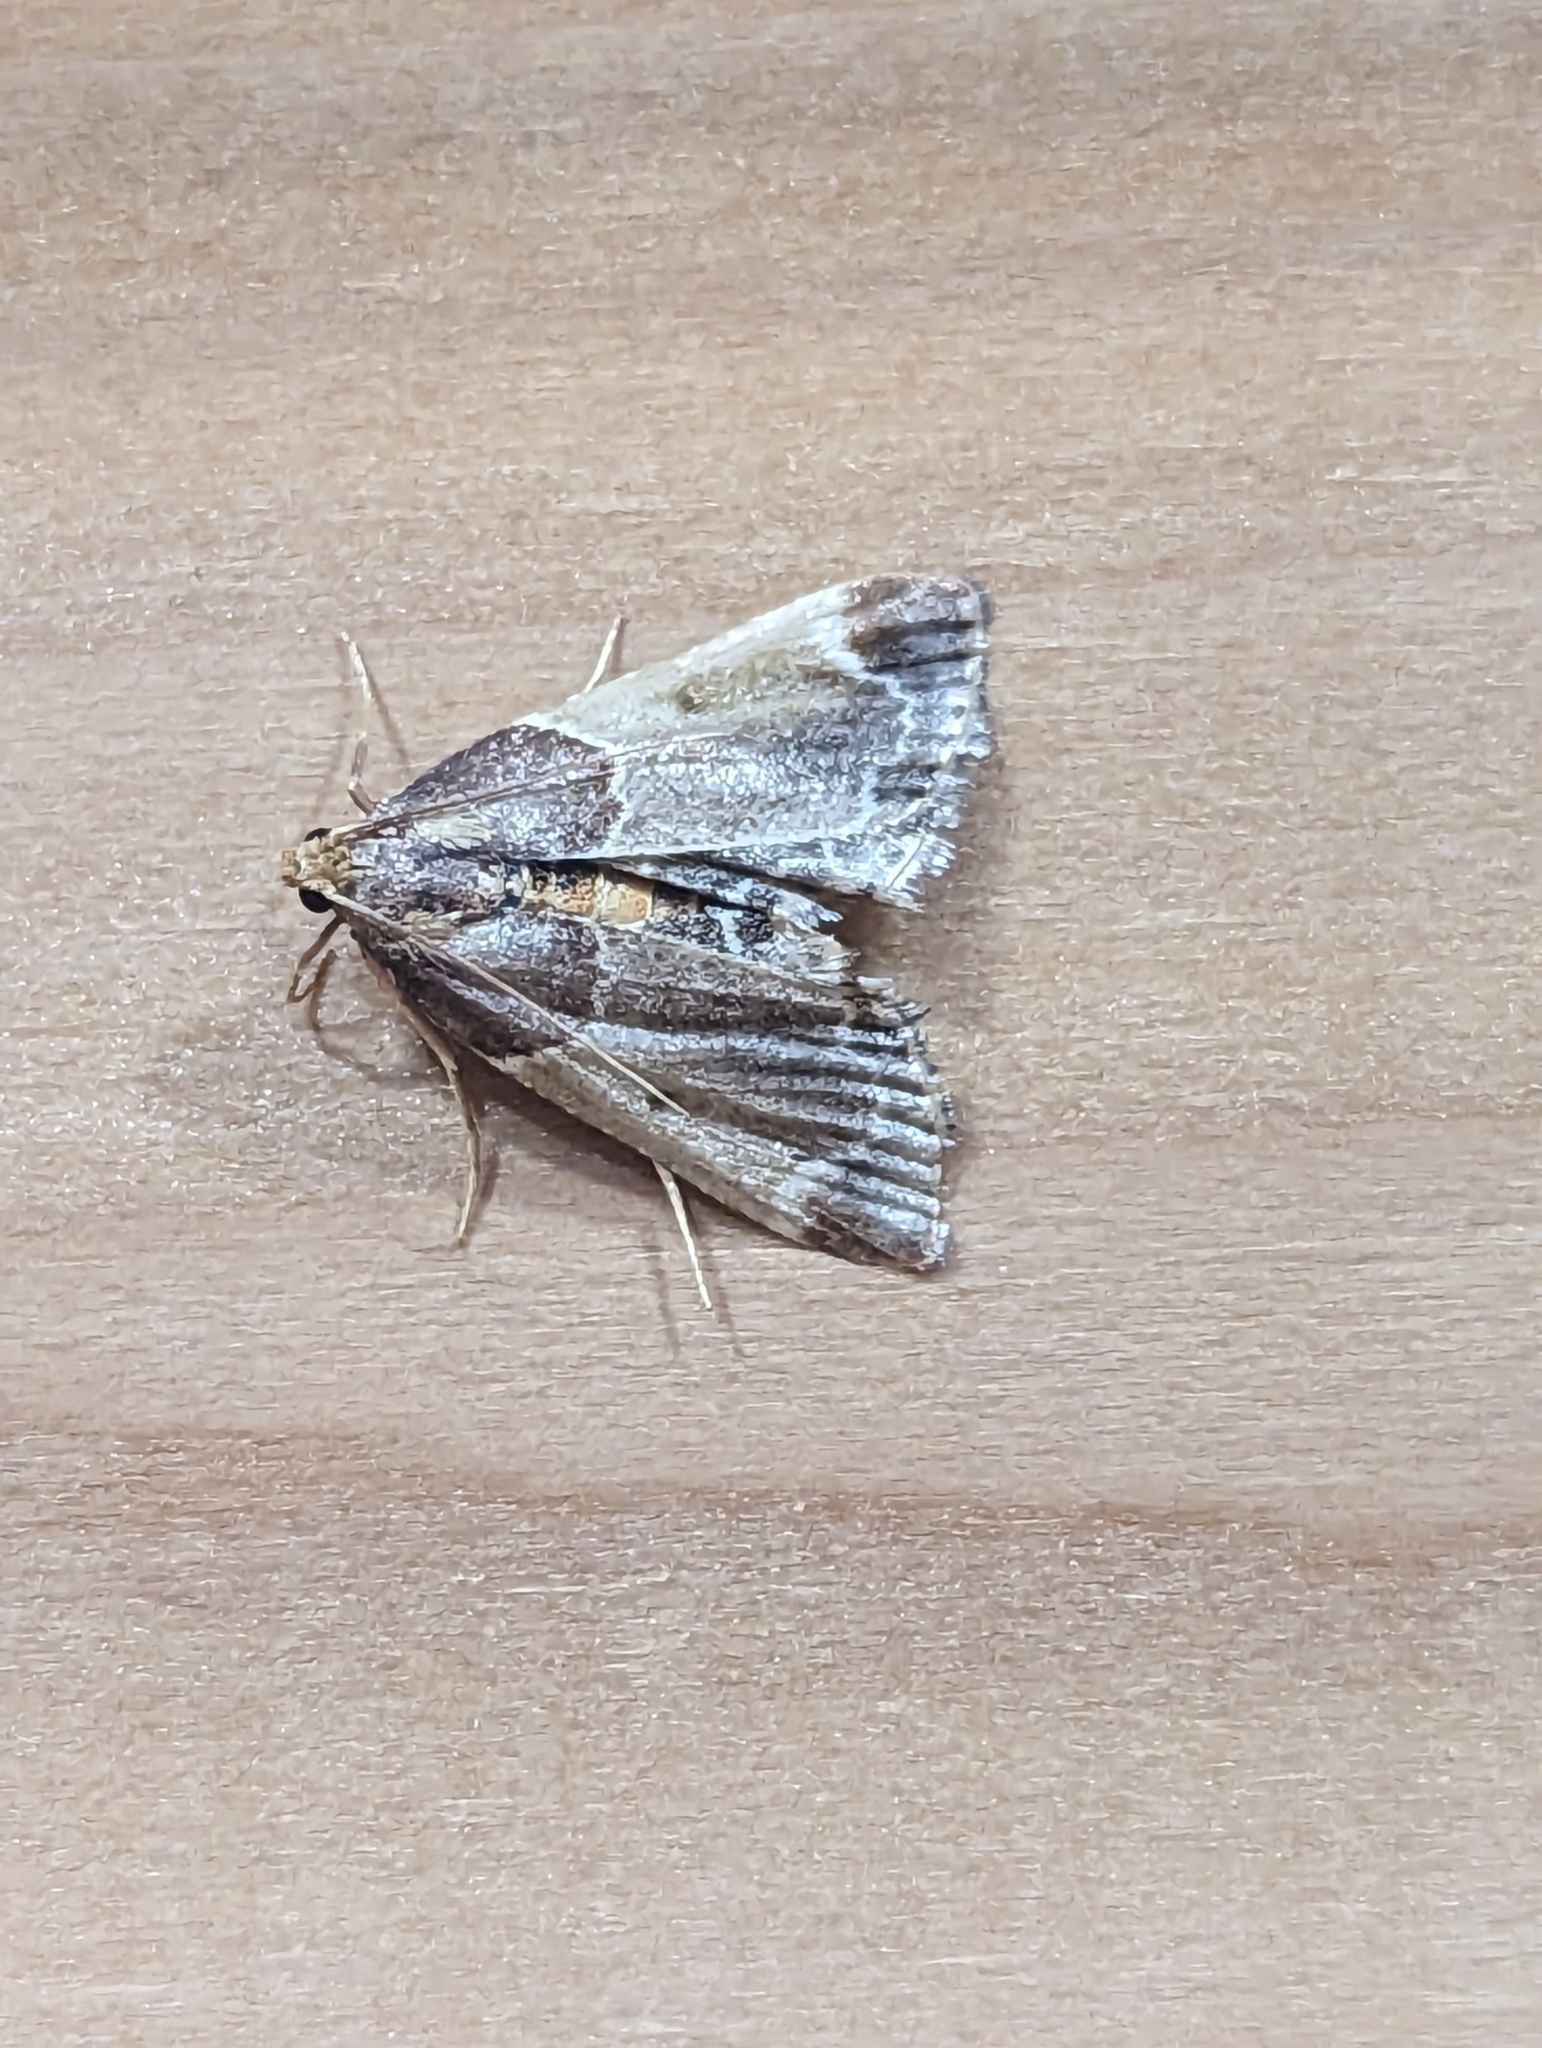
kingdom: Animalia
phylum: Arthropoda
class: Insecta
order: Lepidoptera
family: Pyralidae
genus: Pyralis
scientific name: Pyralis farinalis
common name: Meal moth
